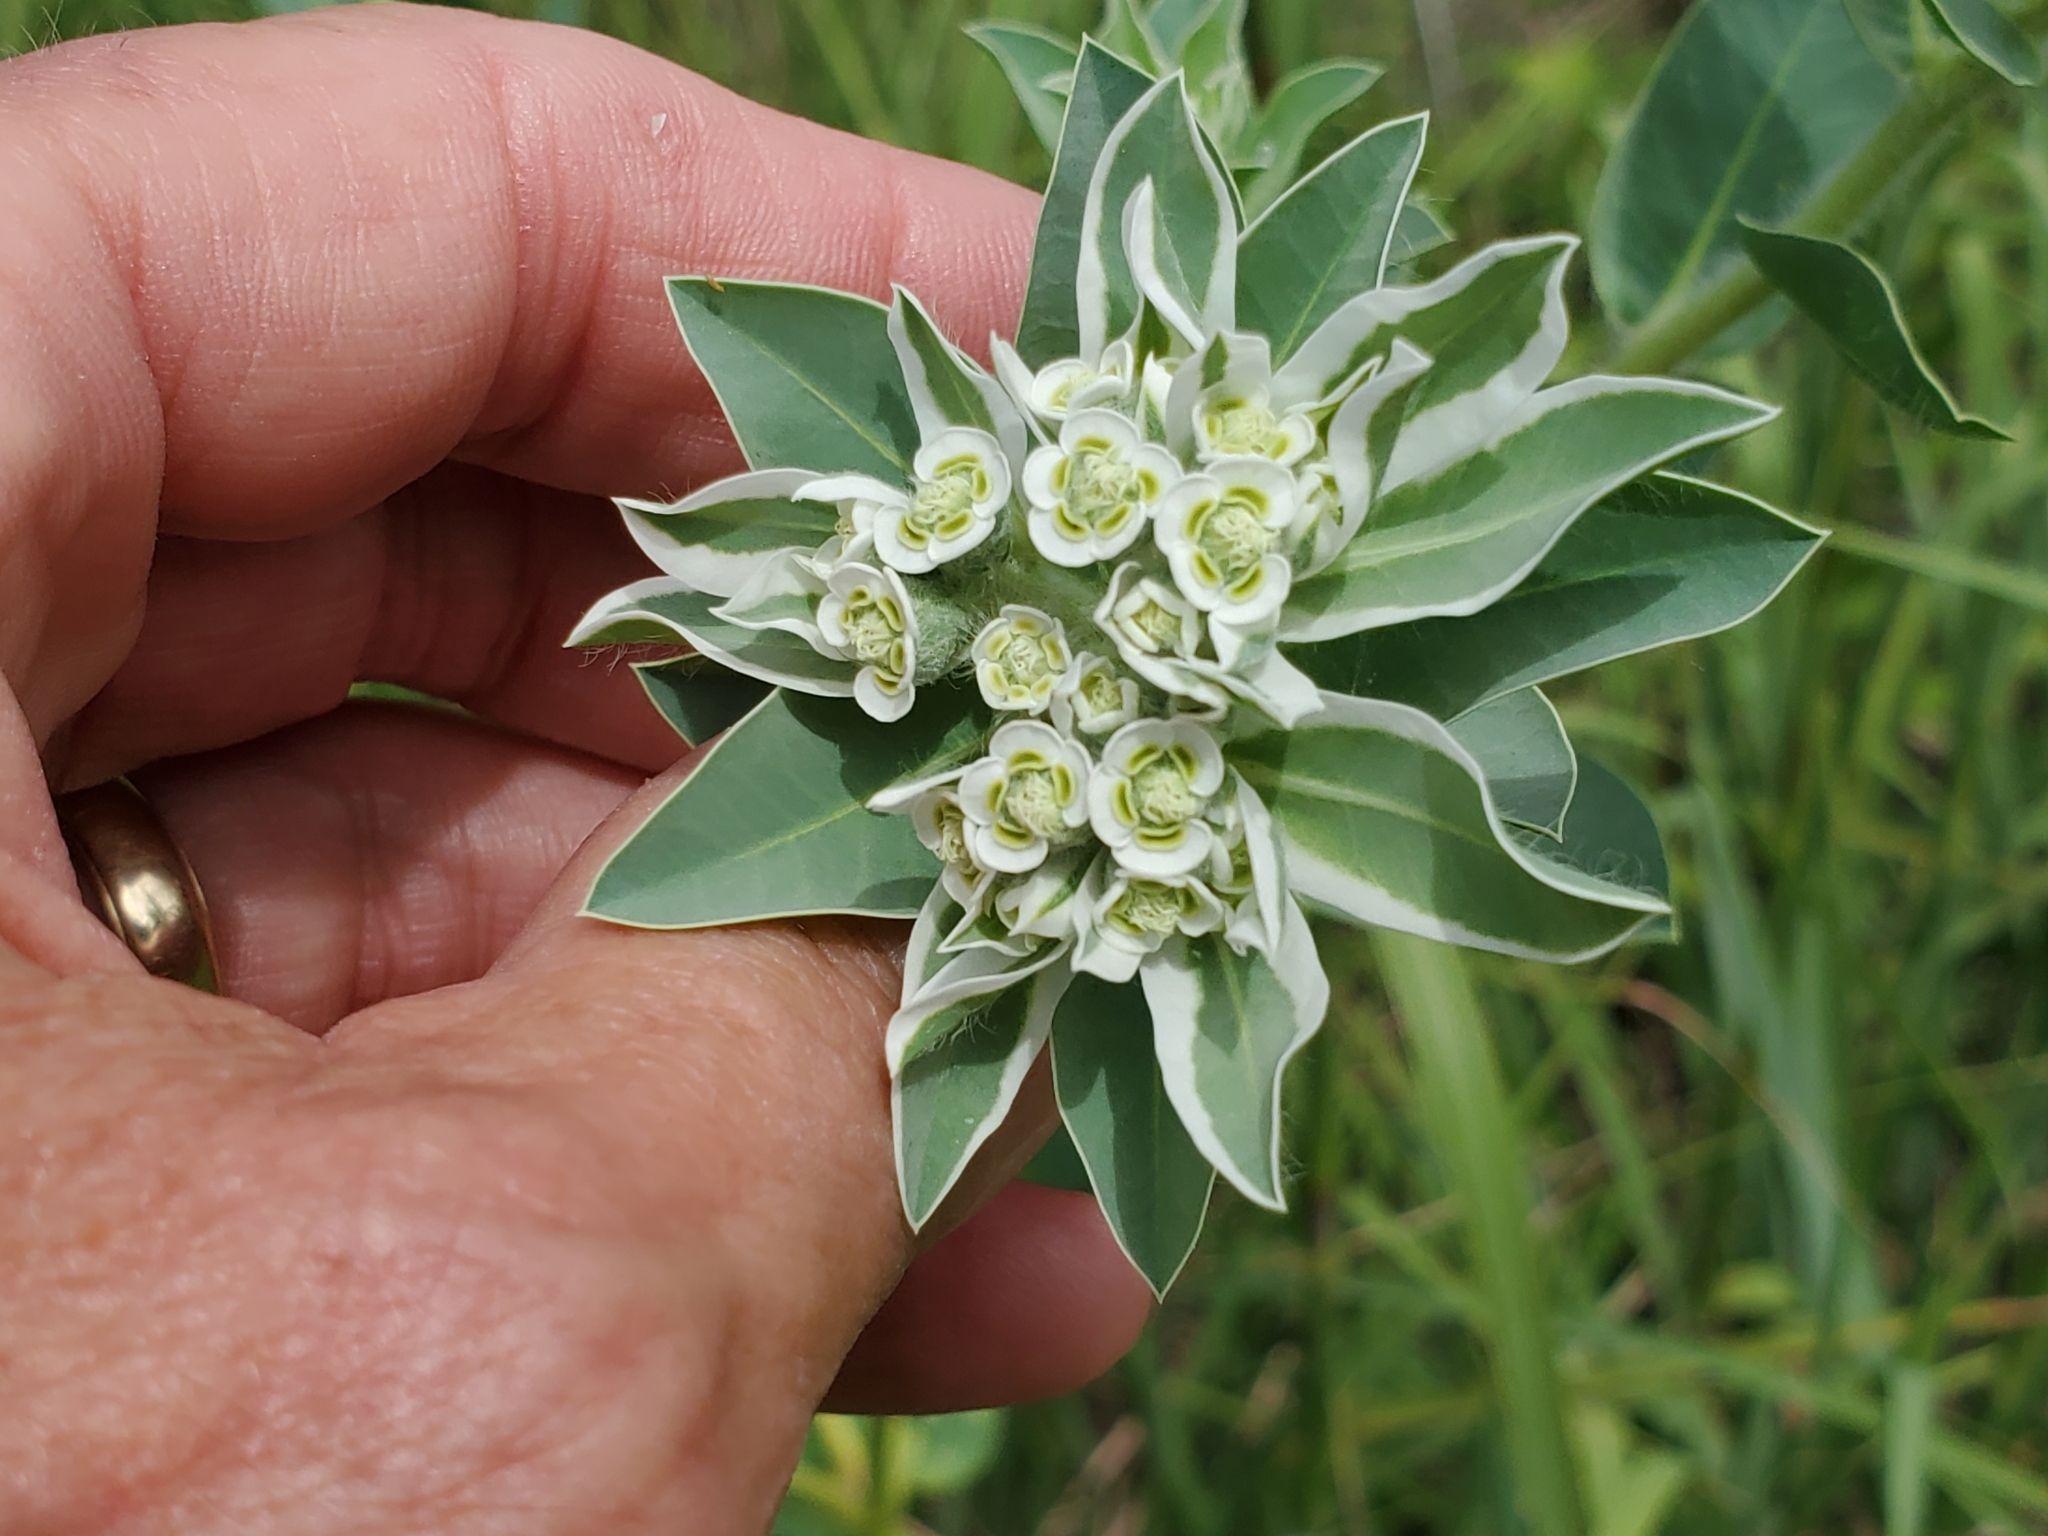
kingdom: Plantae
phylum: Tracheophyta
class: Magnoliopsida
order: Malpighiales
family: Euphorbiaceae
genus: Euphorbia
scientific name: Euphorbia marginata
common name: Ghostweed
